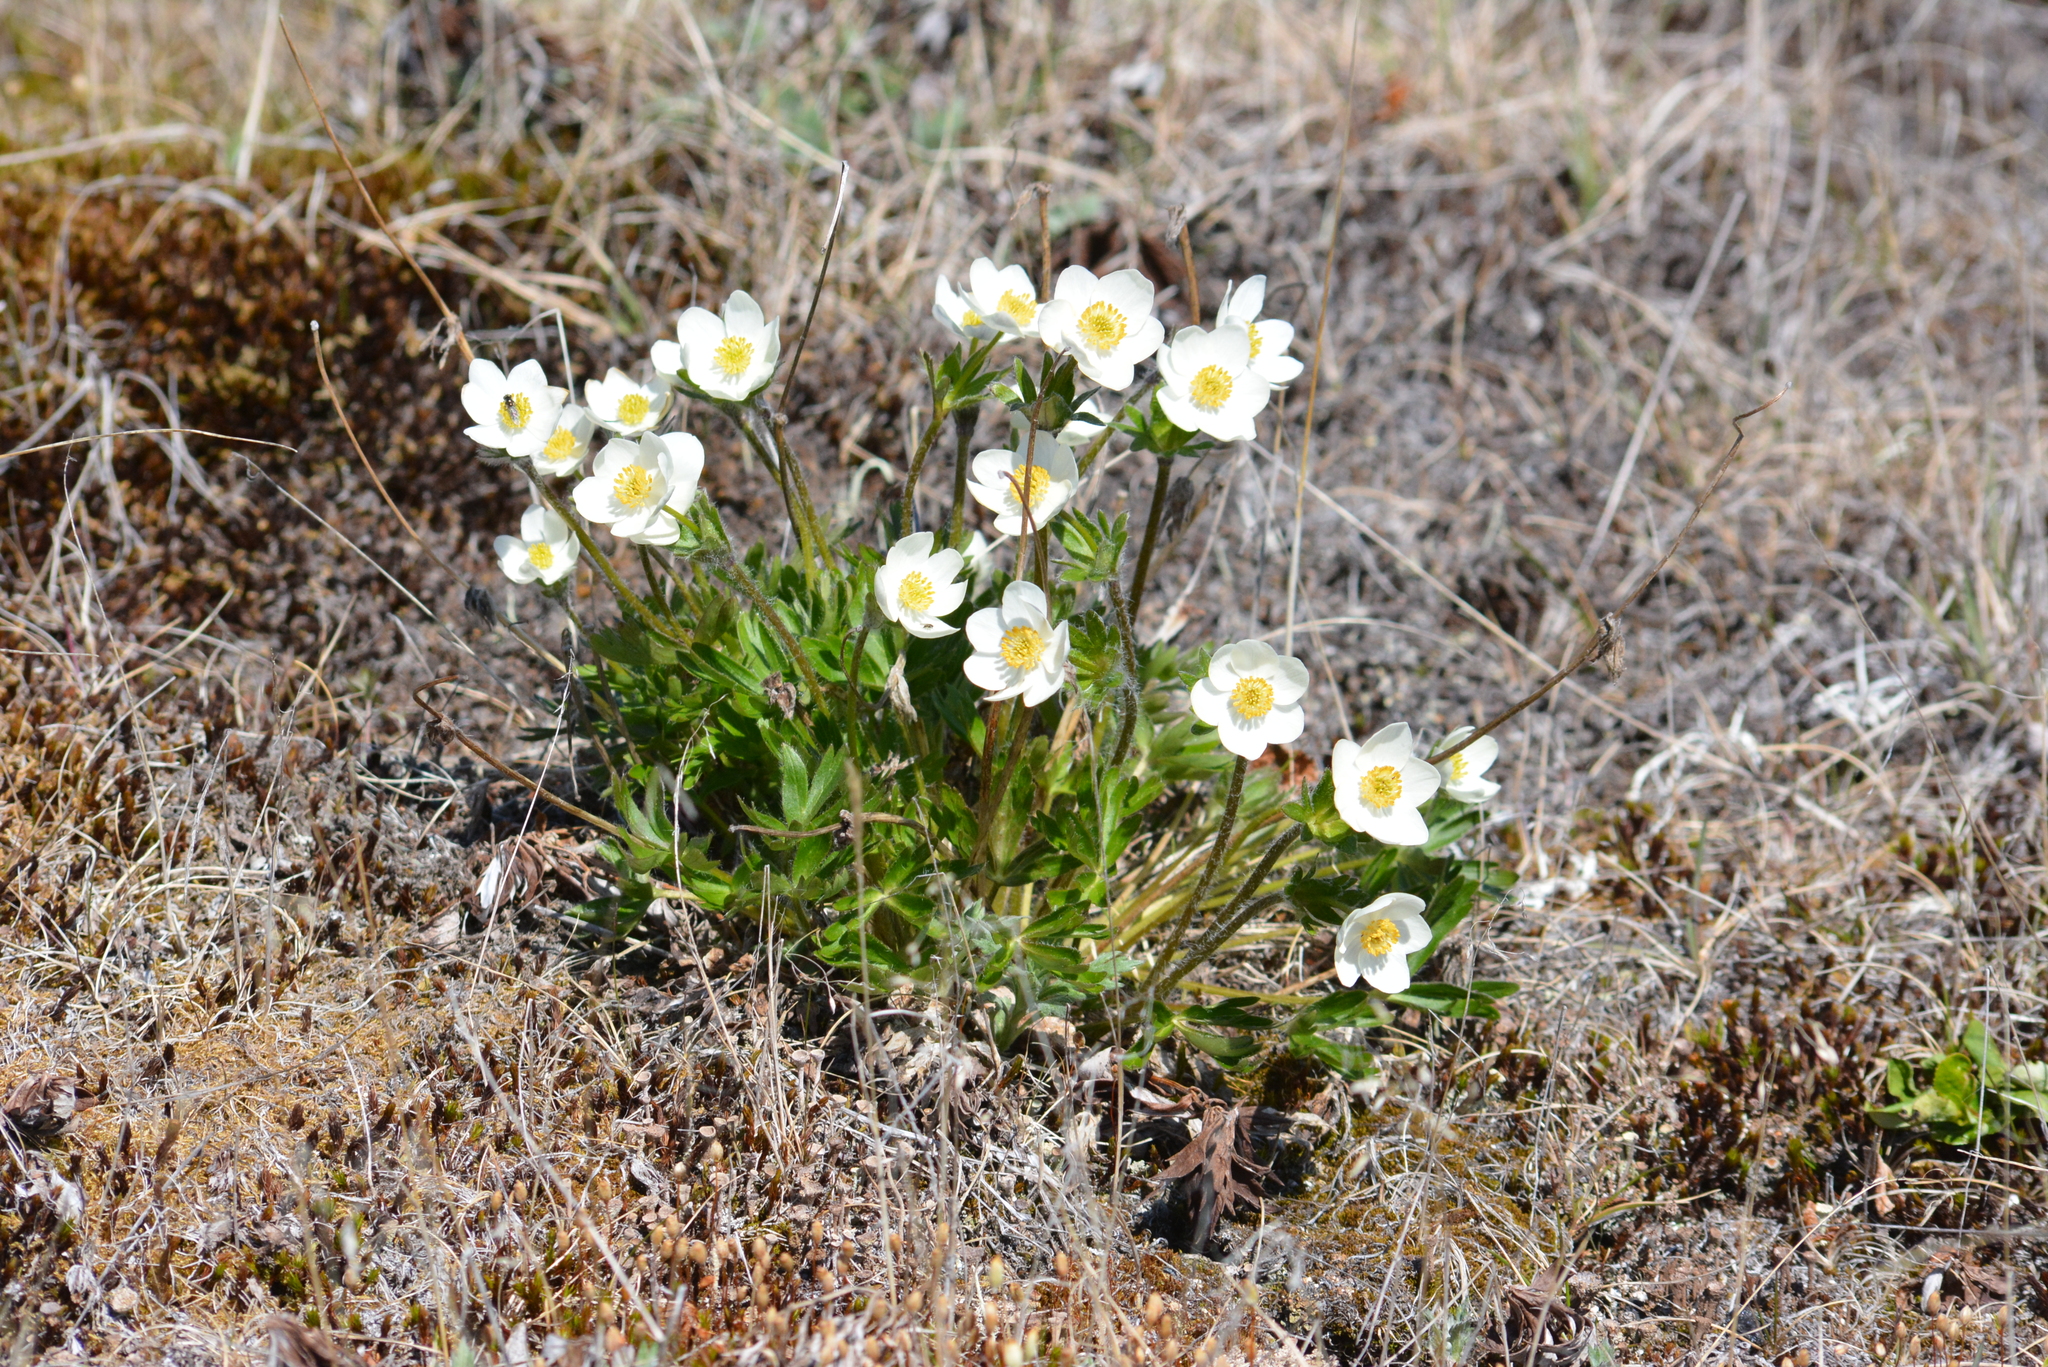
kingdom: Plantae
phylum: Tracheophyta
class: Magnoliopsida
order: Ranunculales
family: Ranunculaceae
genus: Anemonastrum
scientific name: Anemonastrum narcissiflorum
